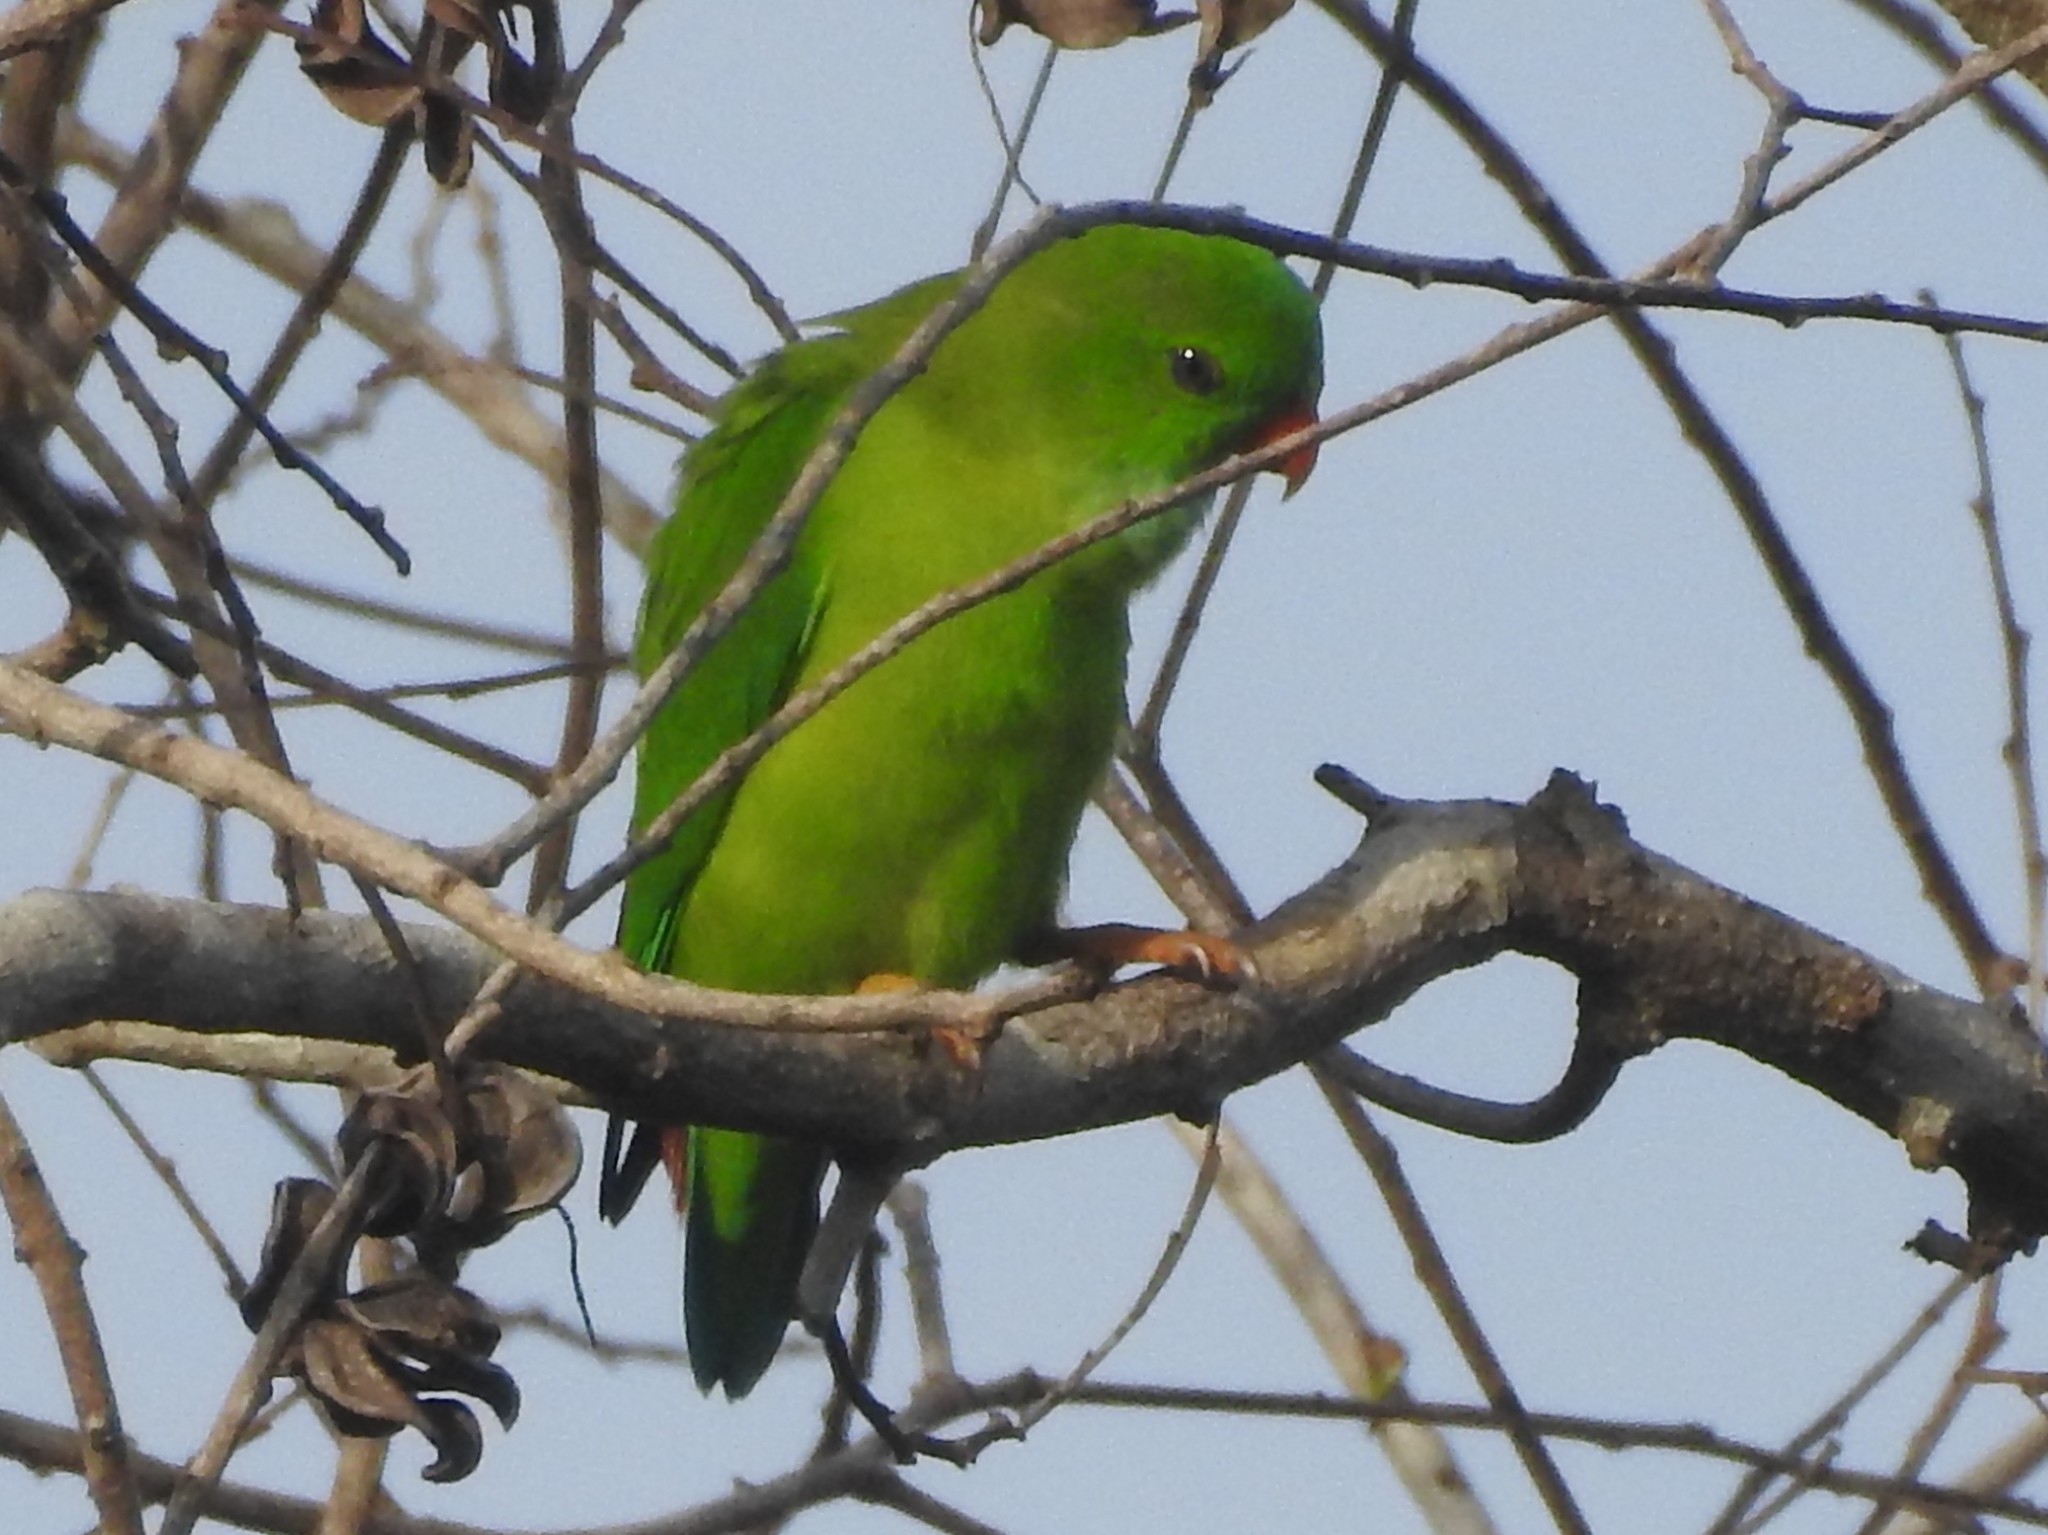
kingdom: Animalia
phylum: Chordata
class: Aves
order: Psittaciformes
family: Psittacidae
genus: Loriculus
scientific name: Loriculus vernalis
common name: Vernal hanging parrot
